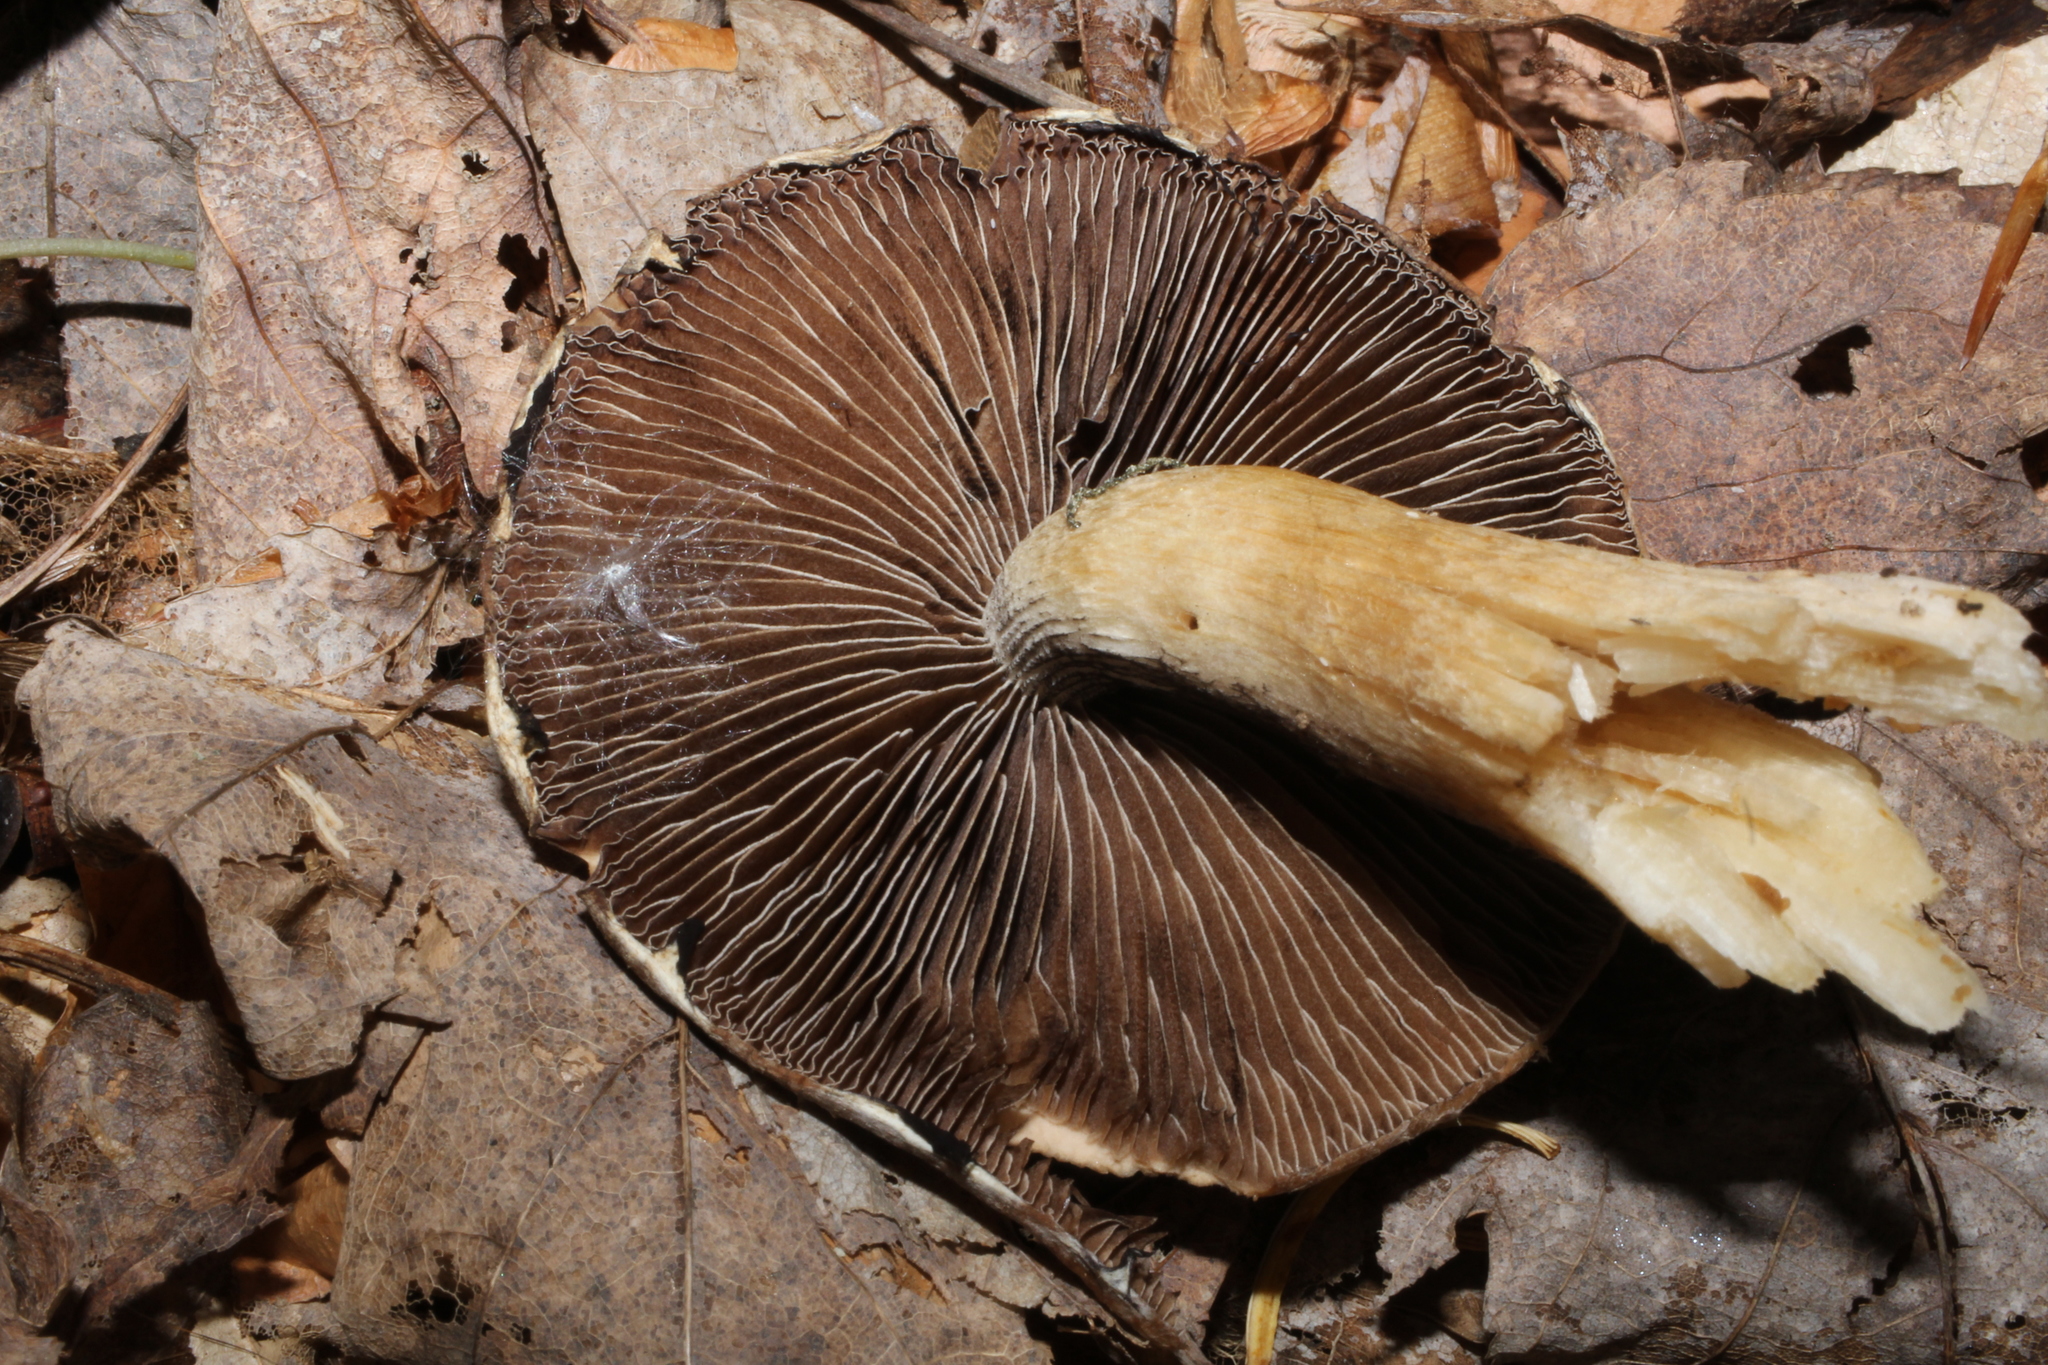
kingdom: Fungi
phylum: Basidiomycota
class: Agaricomycetes
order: Agaricales
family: Psathyrellaceae
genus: Typhrasa
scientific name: Typhrasa gossypina
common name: Wrinkled psathyrella
